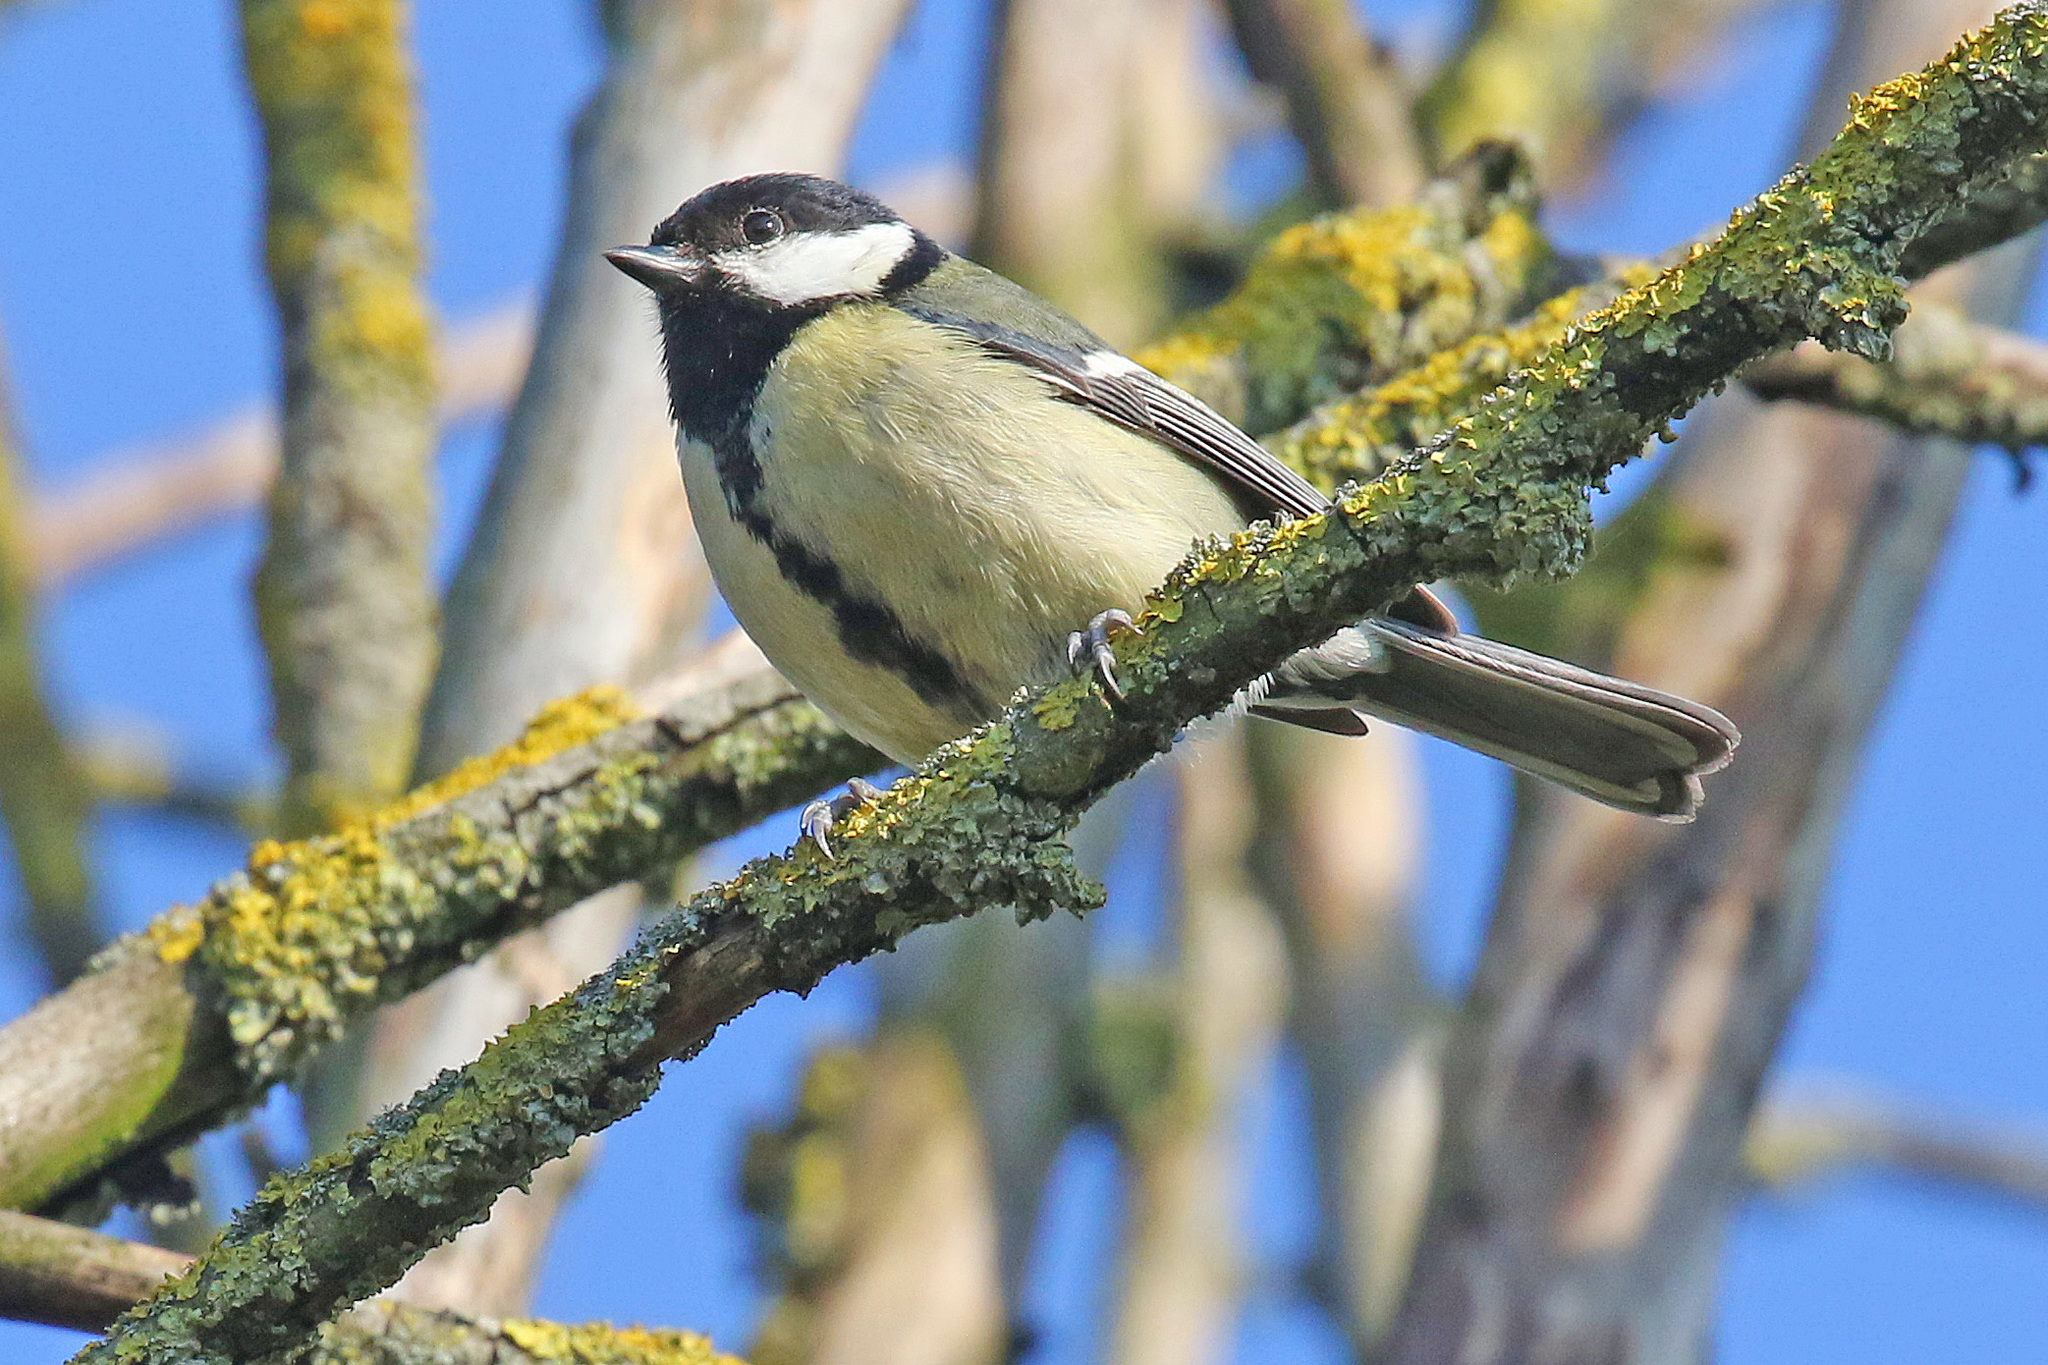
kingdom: Animalia
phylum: Chordata
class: Aves
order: Passeriformes
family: Paridae
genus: Parus
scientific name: Parus major
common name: Great tit
